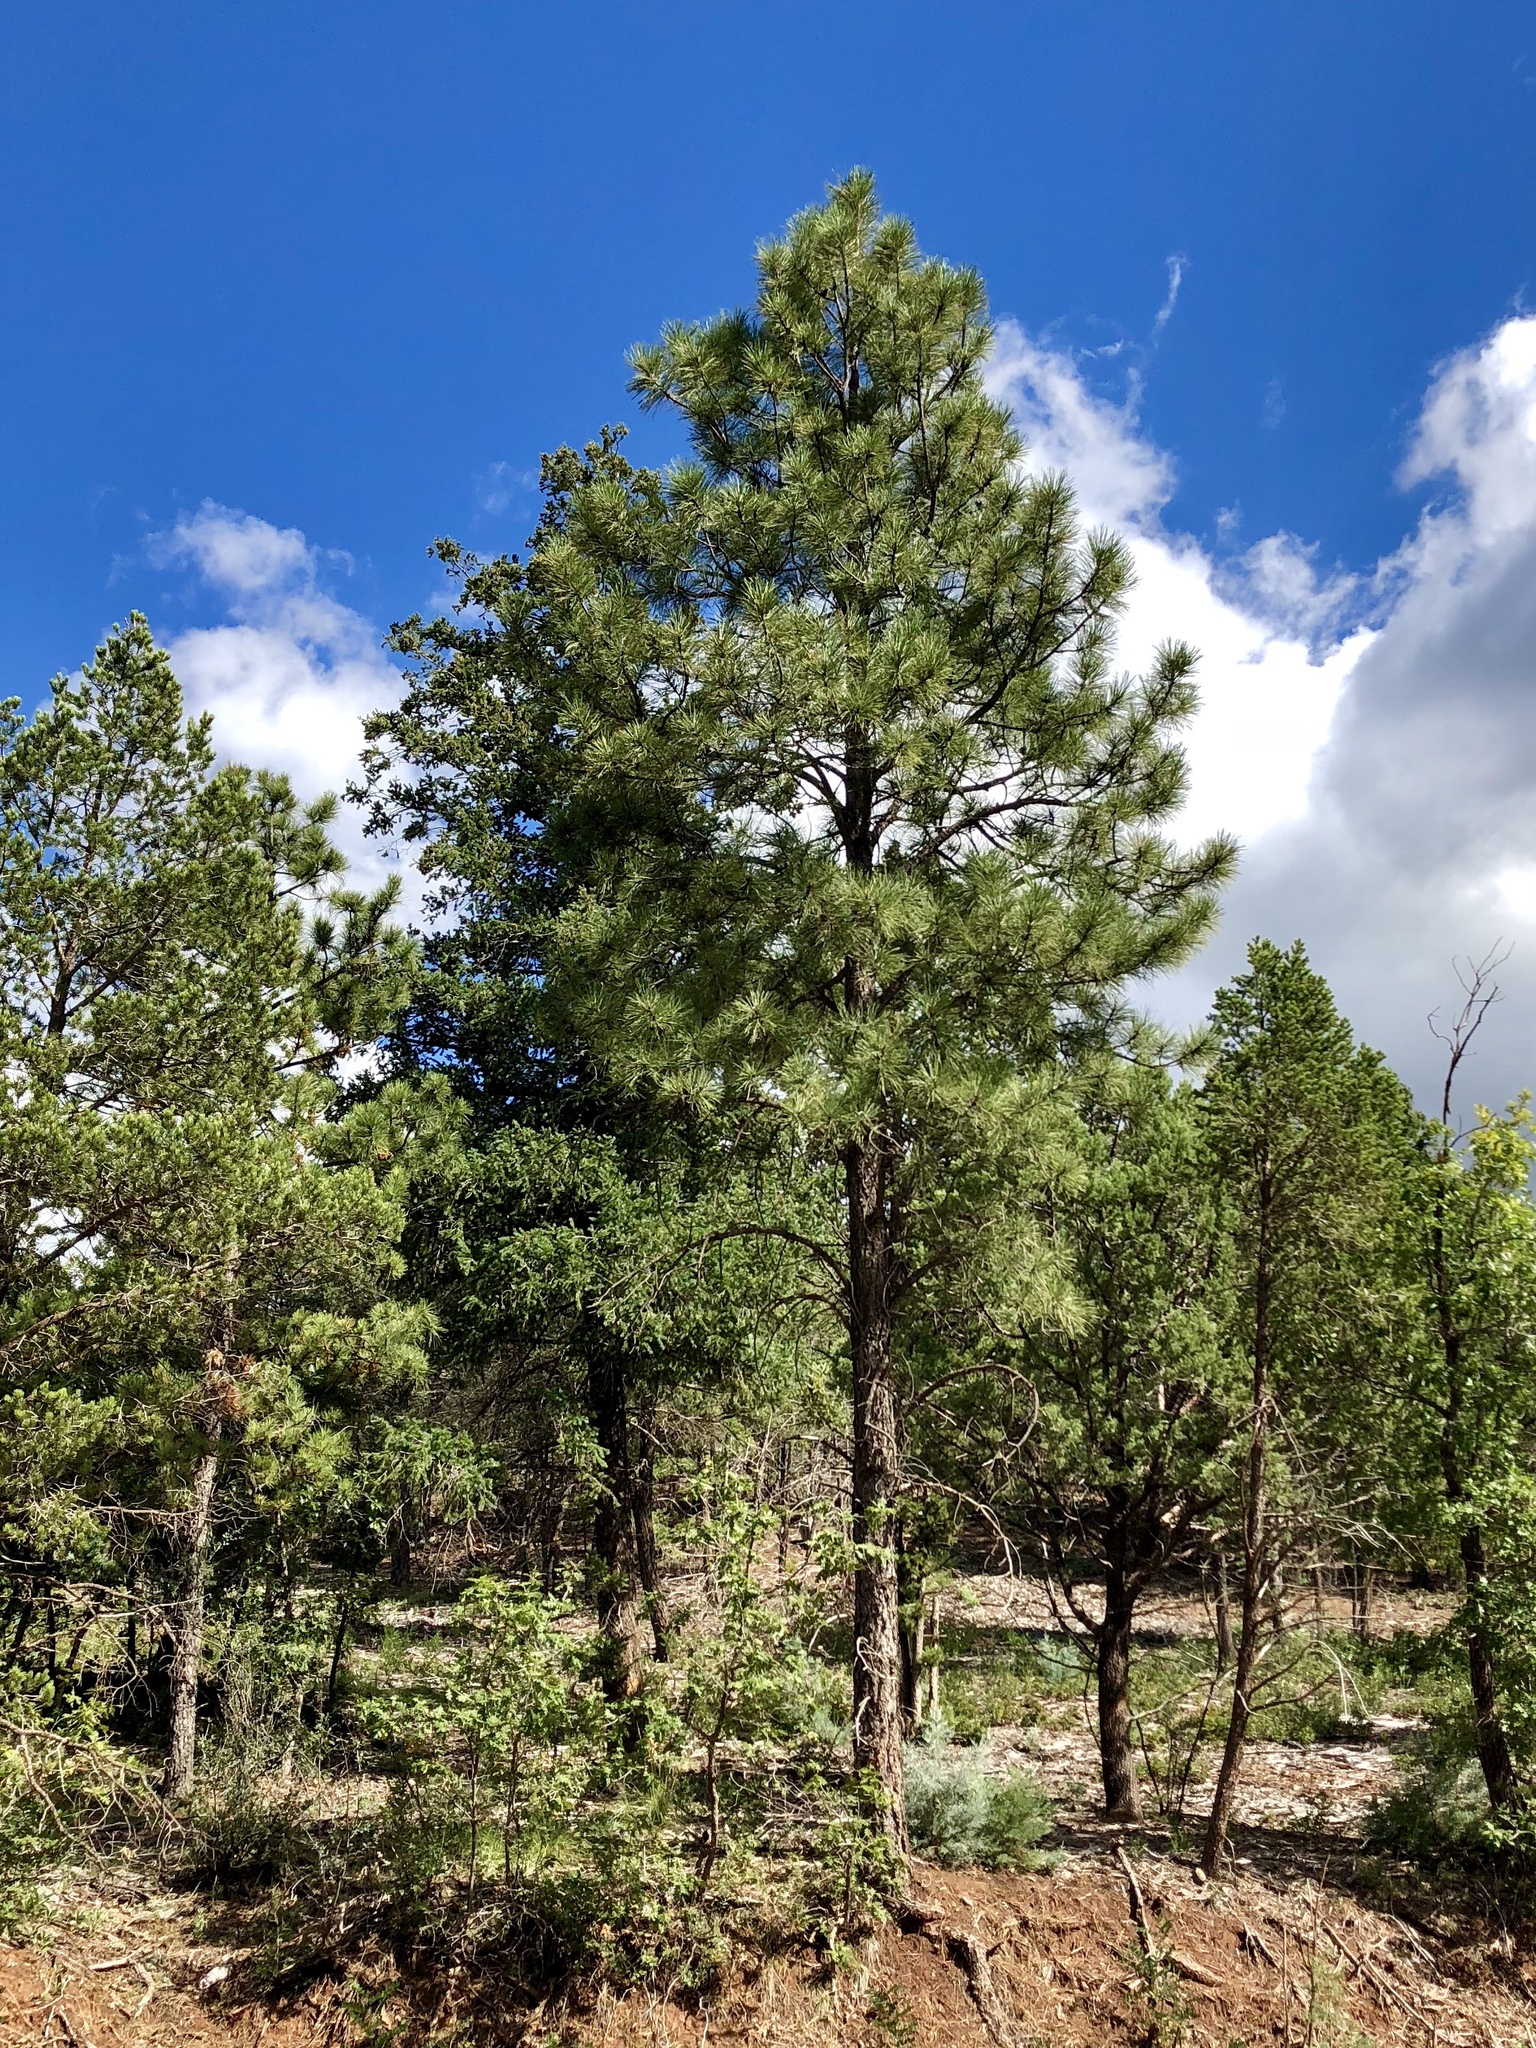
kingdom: Plantae
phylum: Tracheophyta
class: Pinopsida
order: Pinales
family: Pinaceae
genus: Pinus
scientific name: Pinus ponderosa
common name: Western yellow-pine
